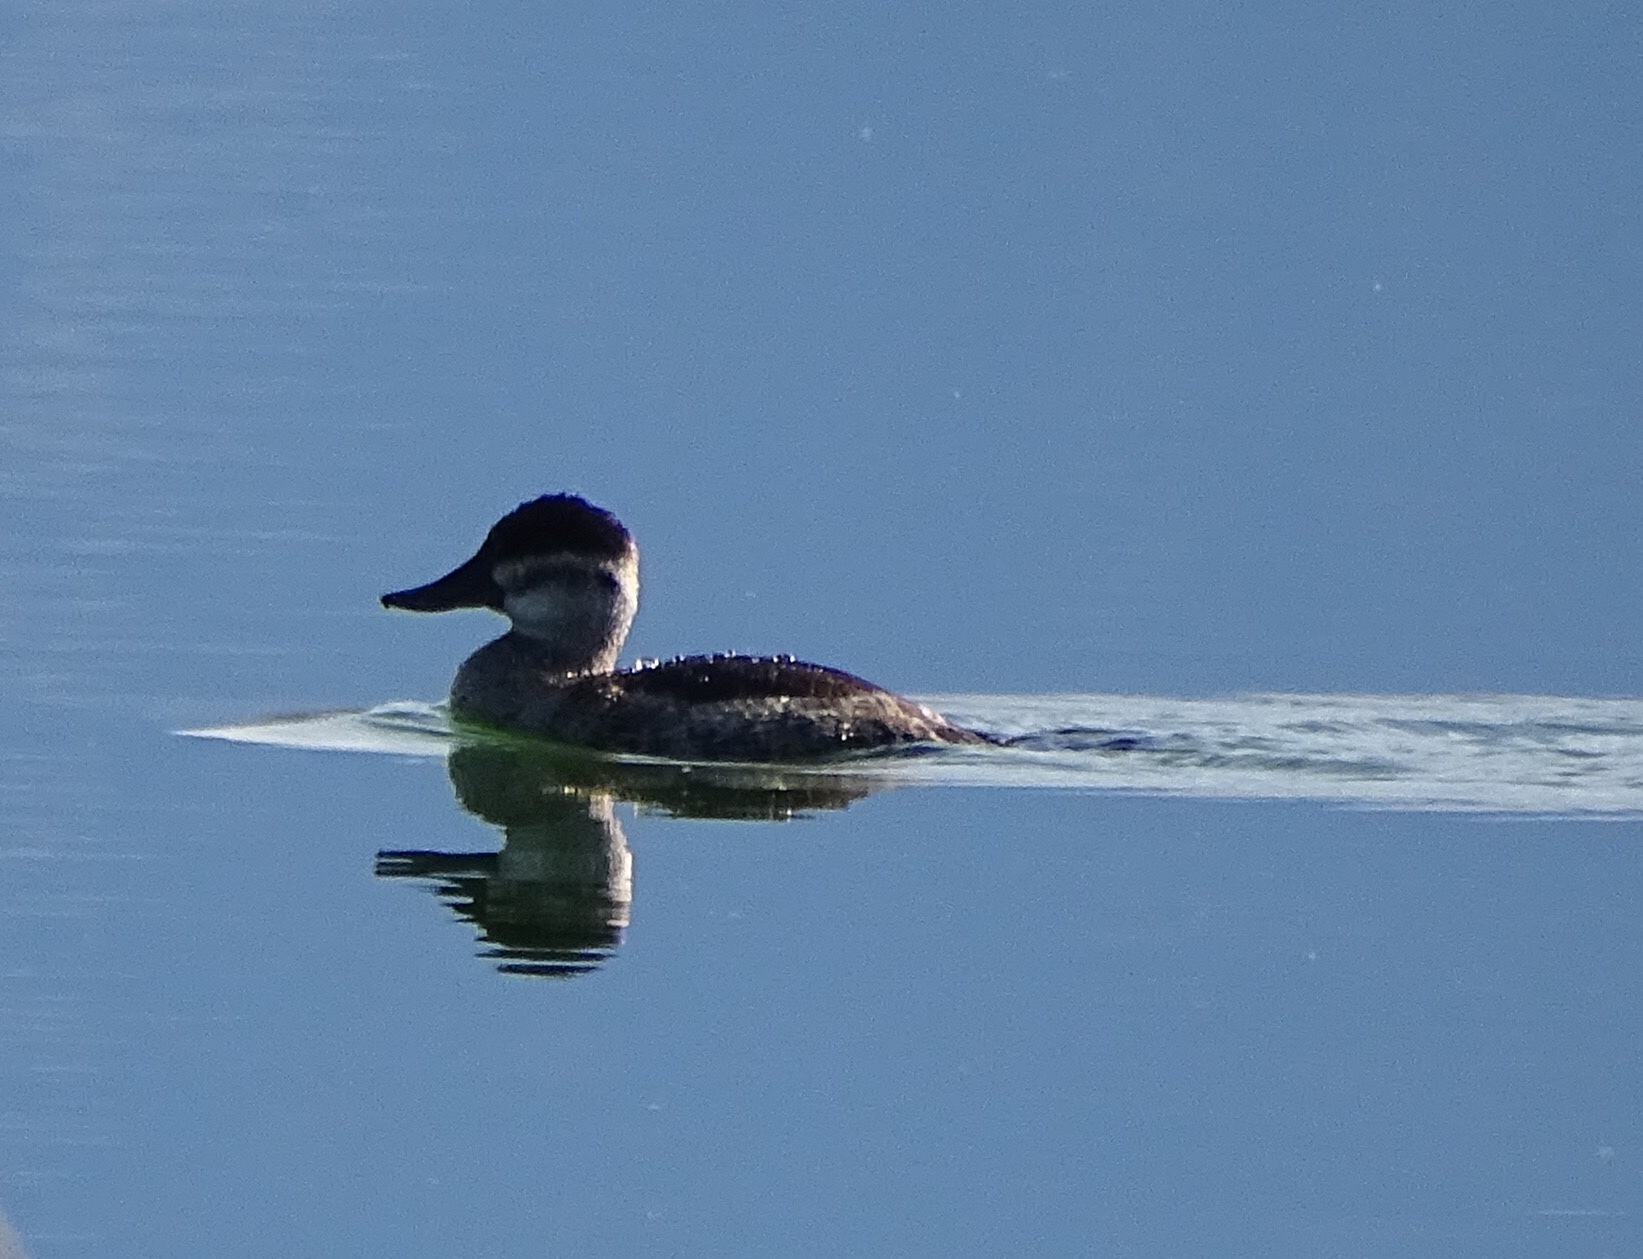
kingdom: Animalia
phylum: Chordata
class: Aves
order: Anseriformes
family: Anatidae
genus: Oxyura
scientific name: Oxyura jamaicensis
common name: Ruddy duck
